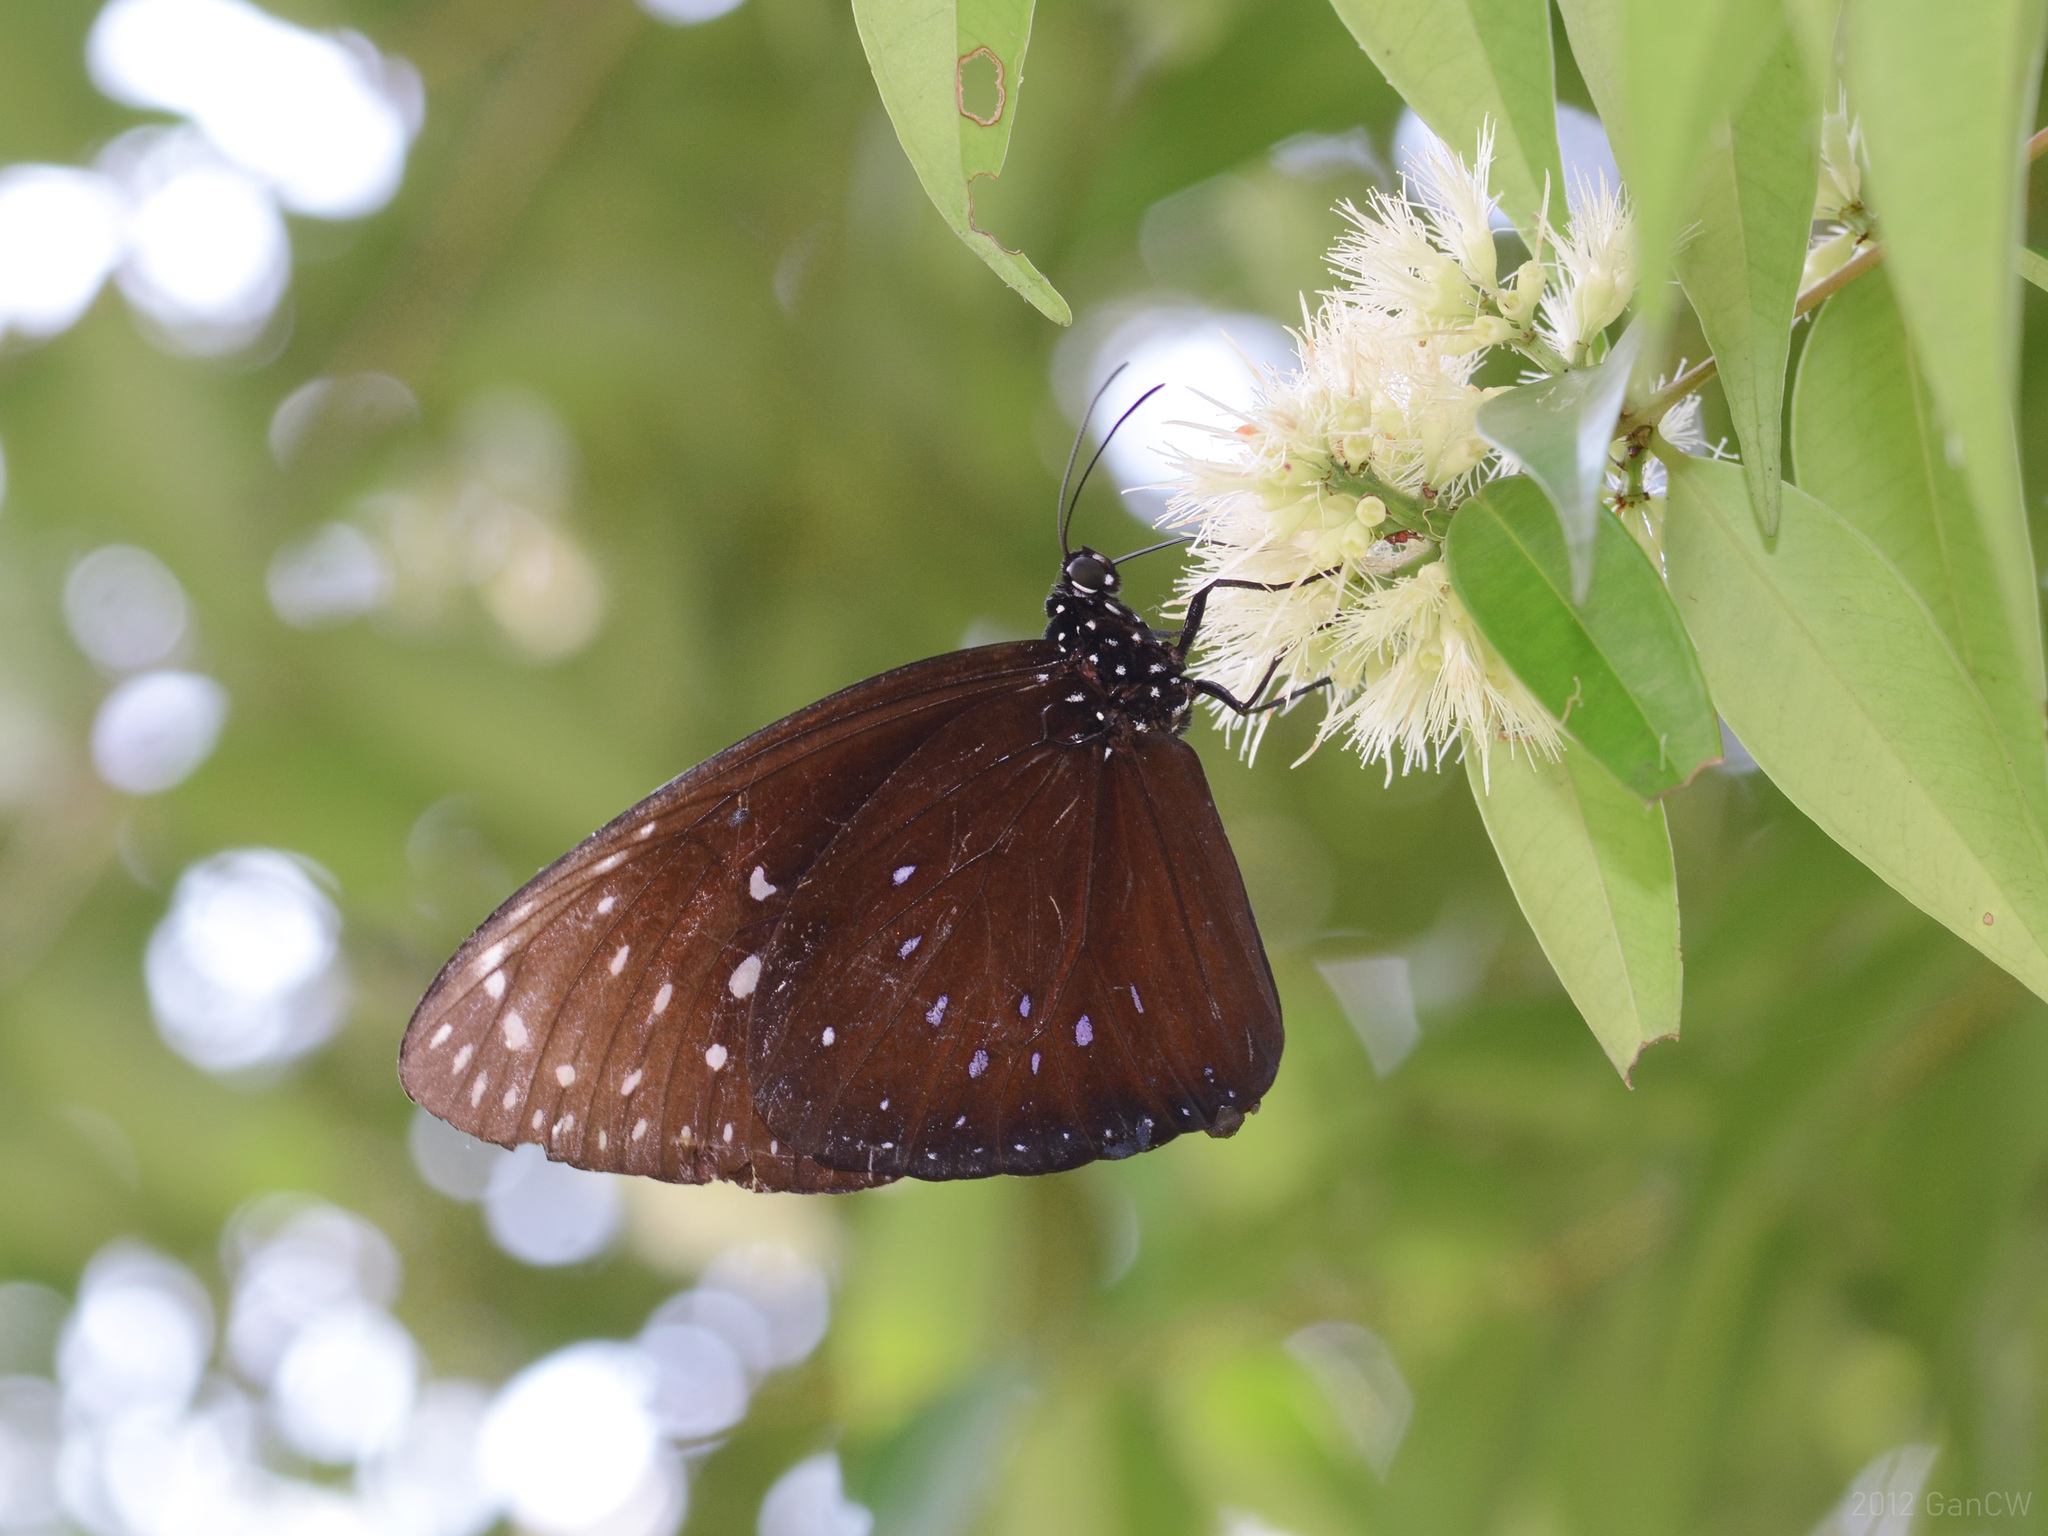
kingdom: Animalia
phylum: Arthropoda
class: Insecta
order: Lepidoptera
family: Nymphalidae
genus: Euploea
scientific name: Euploea phaenareta
